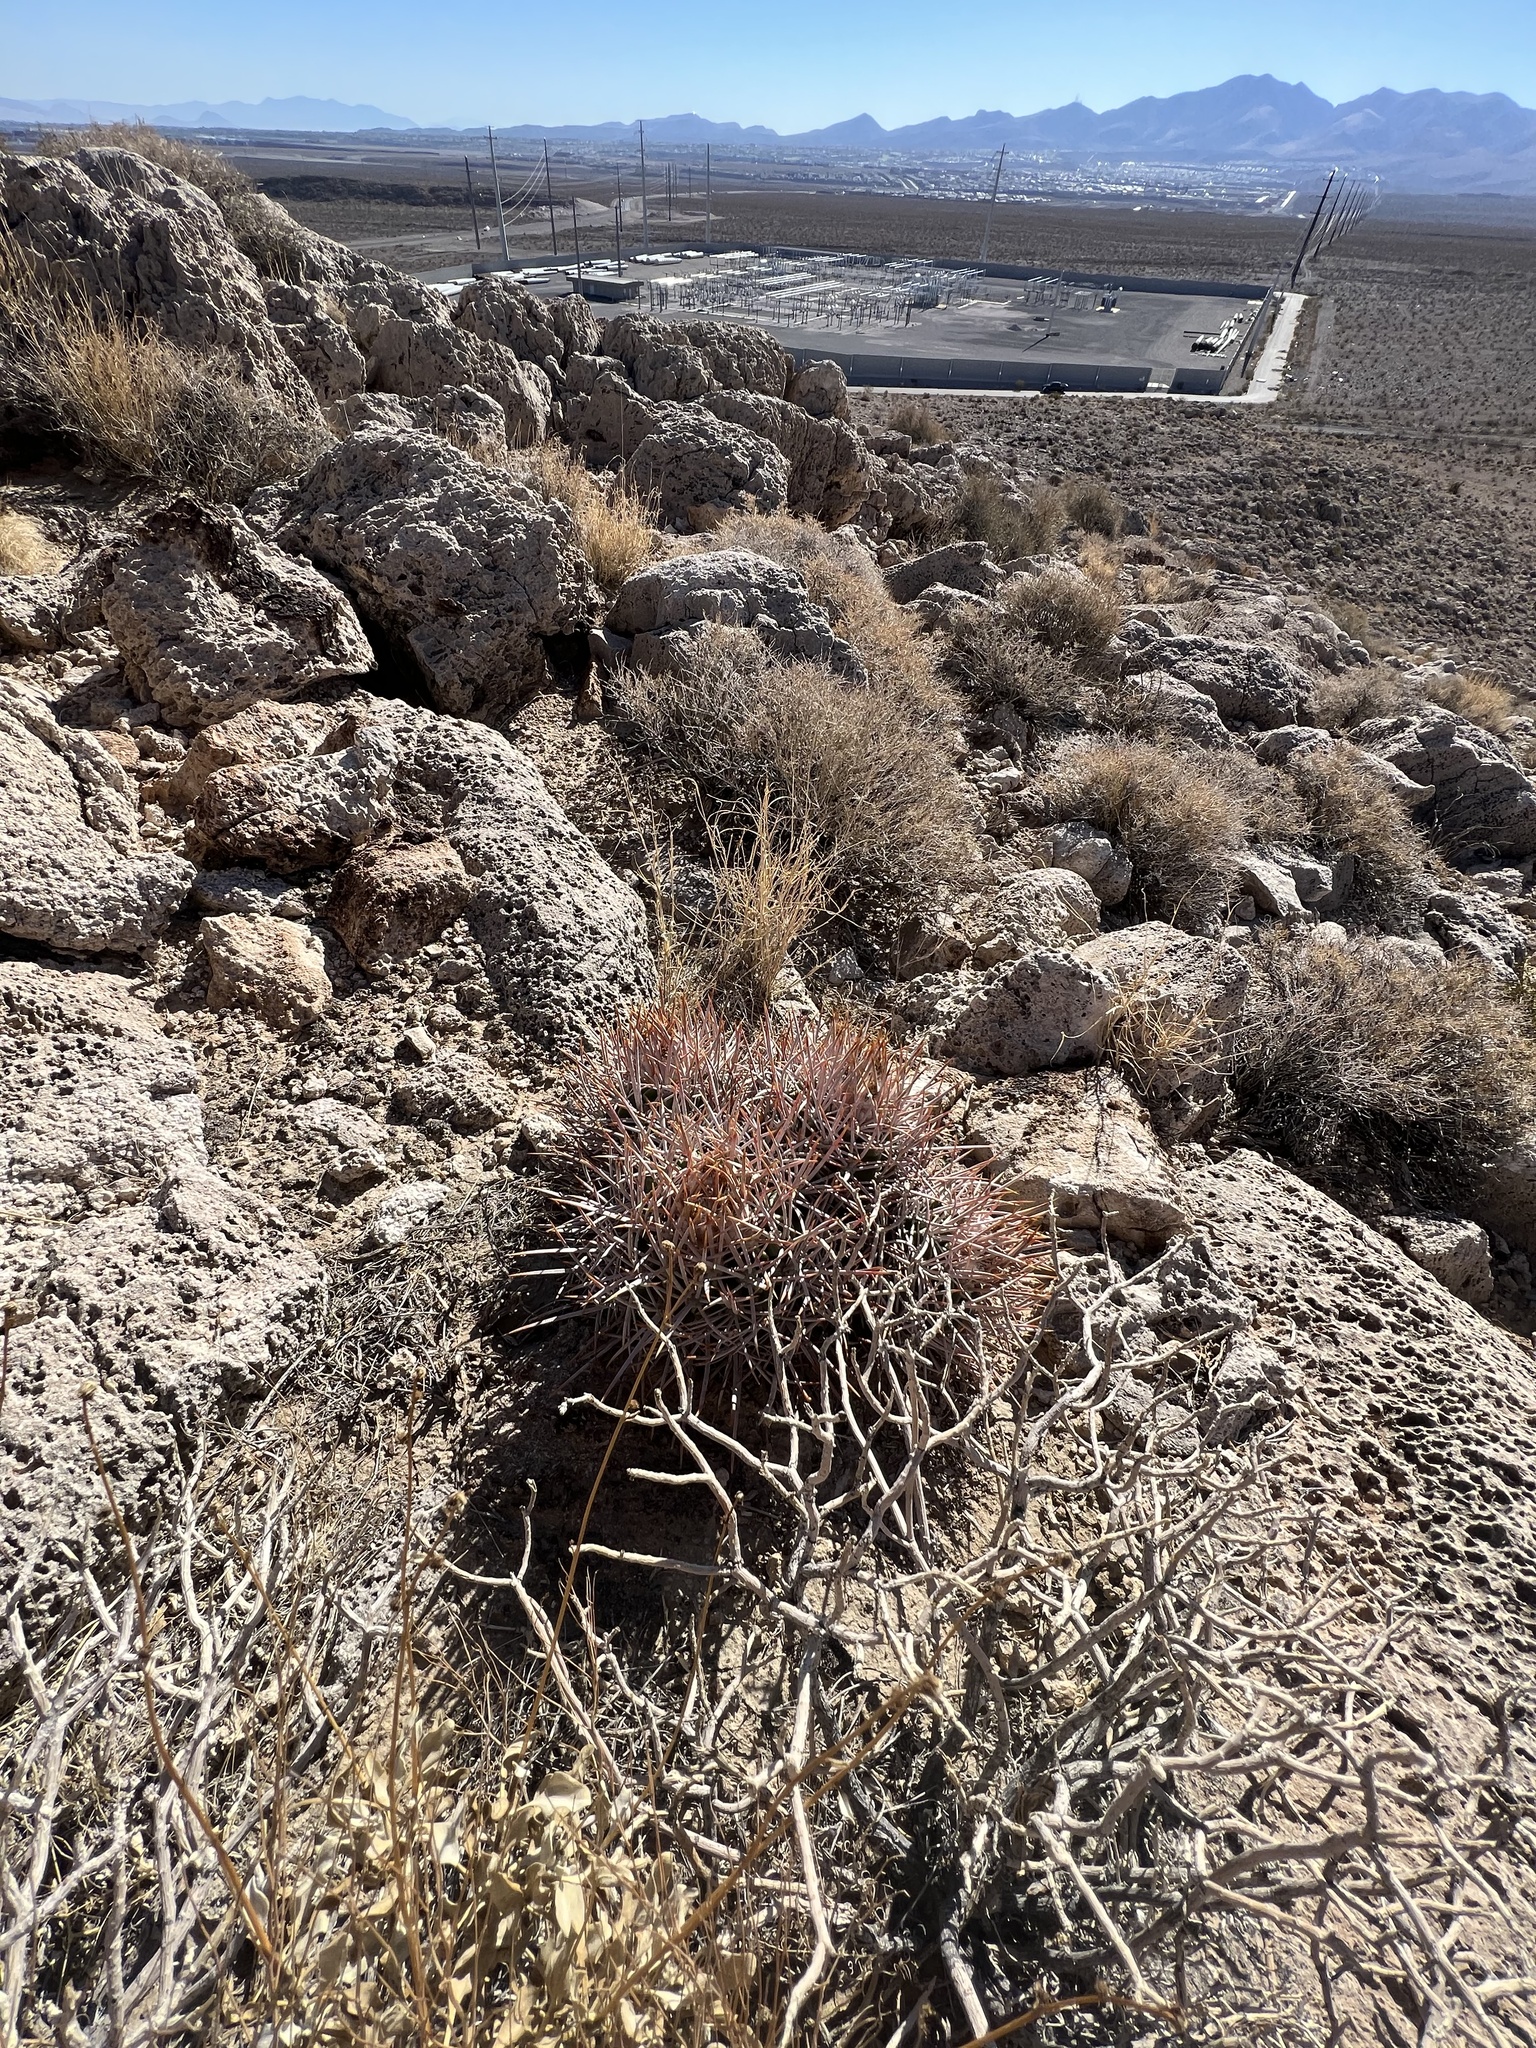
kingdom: Plantae
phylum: Tracheophyta
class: Magnoliopsida
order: Caryophyllales
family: Cactaceae
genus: Echinocactus
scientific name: Echinocactus polycephalus
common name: Cottontop cactus
